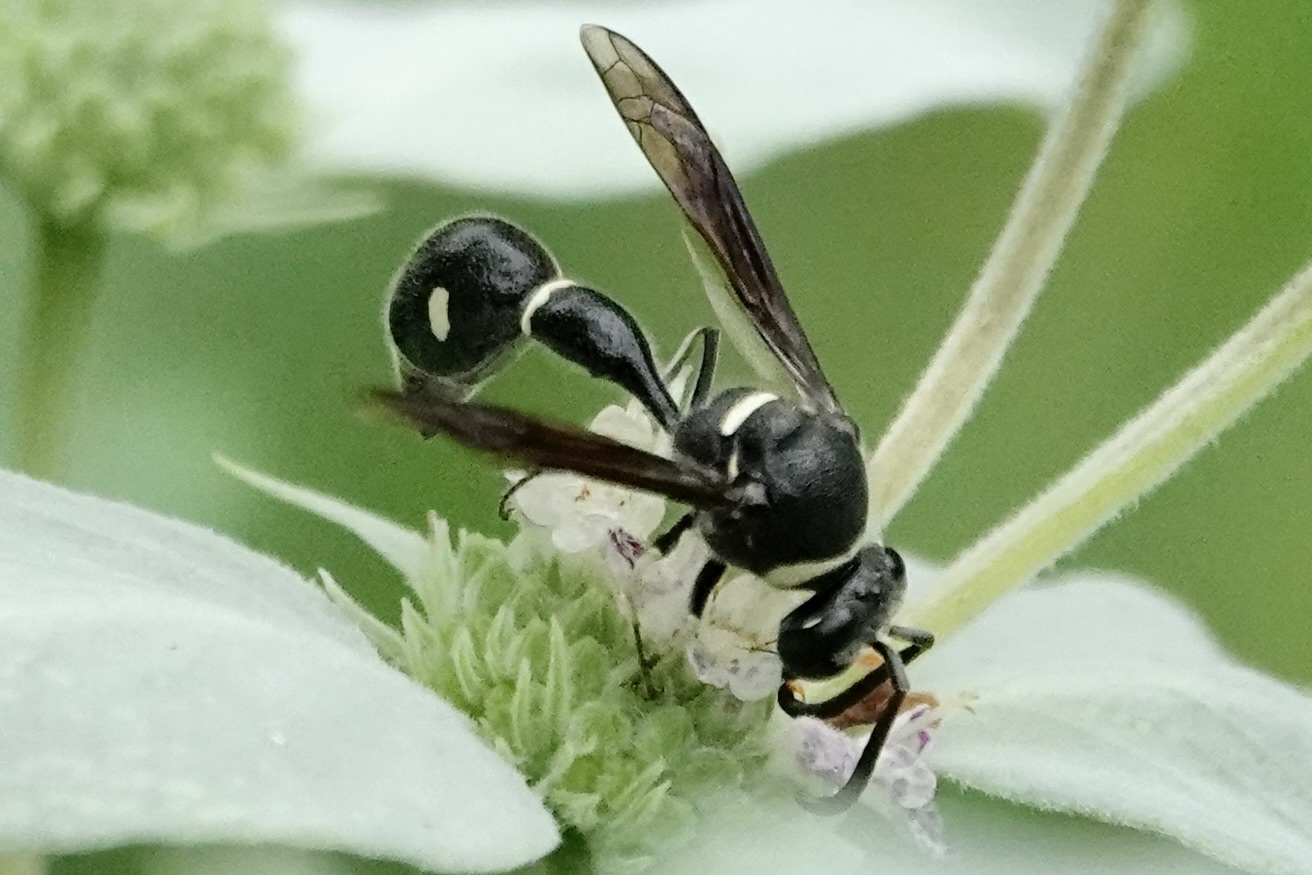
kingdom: Animalia
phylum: Arthropoda
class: Insecta
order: Hymenoptera
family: Vespidae
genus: Eumenes
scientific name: Eumenes fraternus
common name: Fraternal potter wasp
